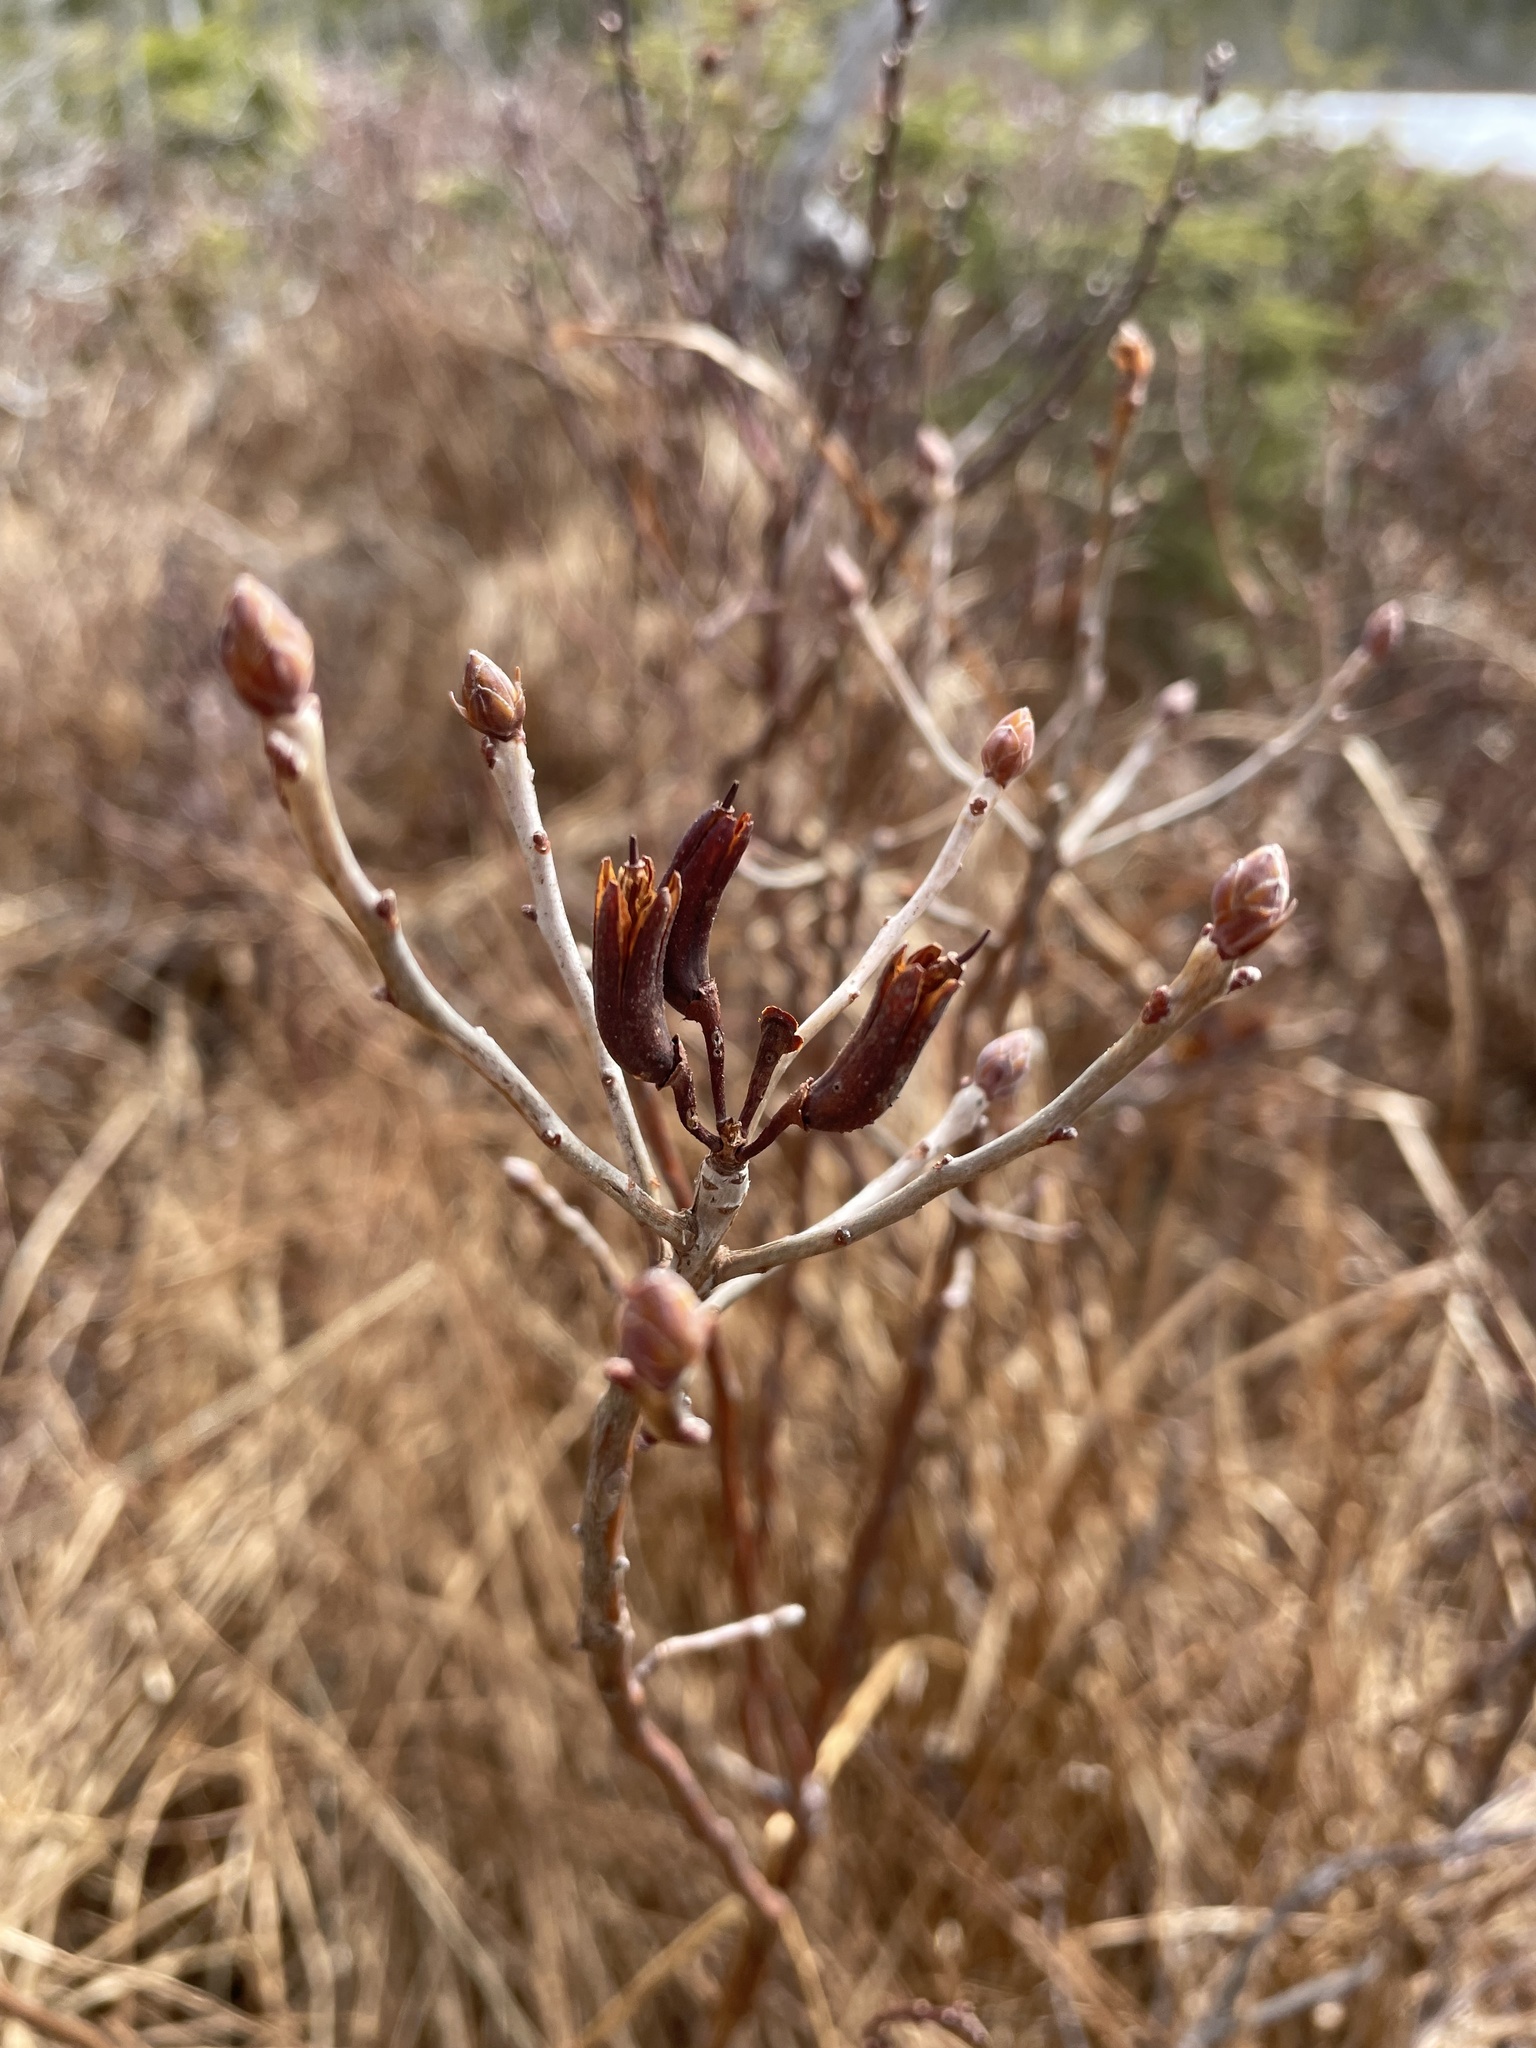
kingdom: Plantae
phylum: Tracheophyta
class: Magnoliopsida
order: Ericales
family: Ericaceae
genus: Rhododendron
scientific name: Rhododendron canadense
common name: Rhodora
